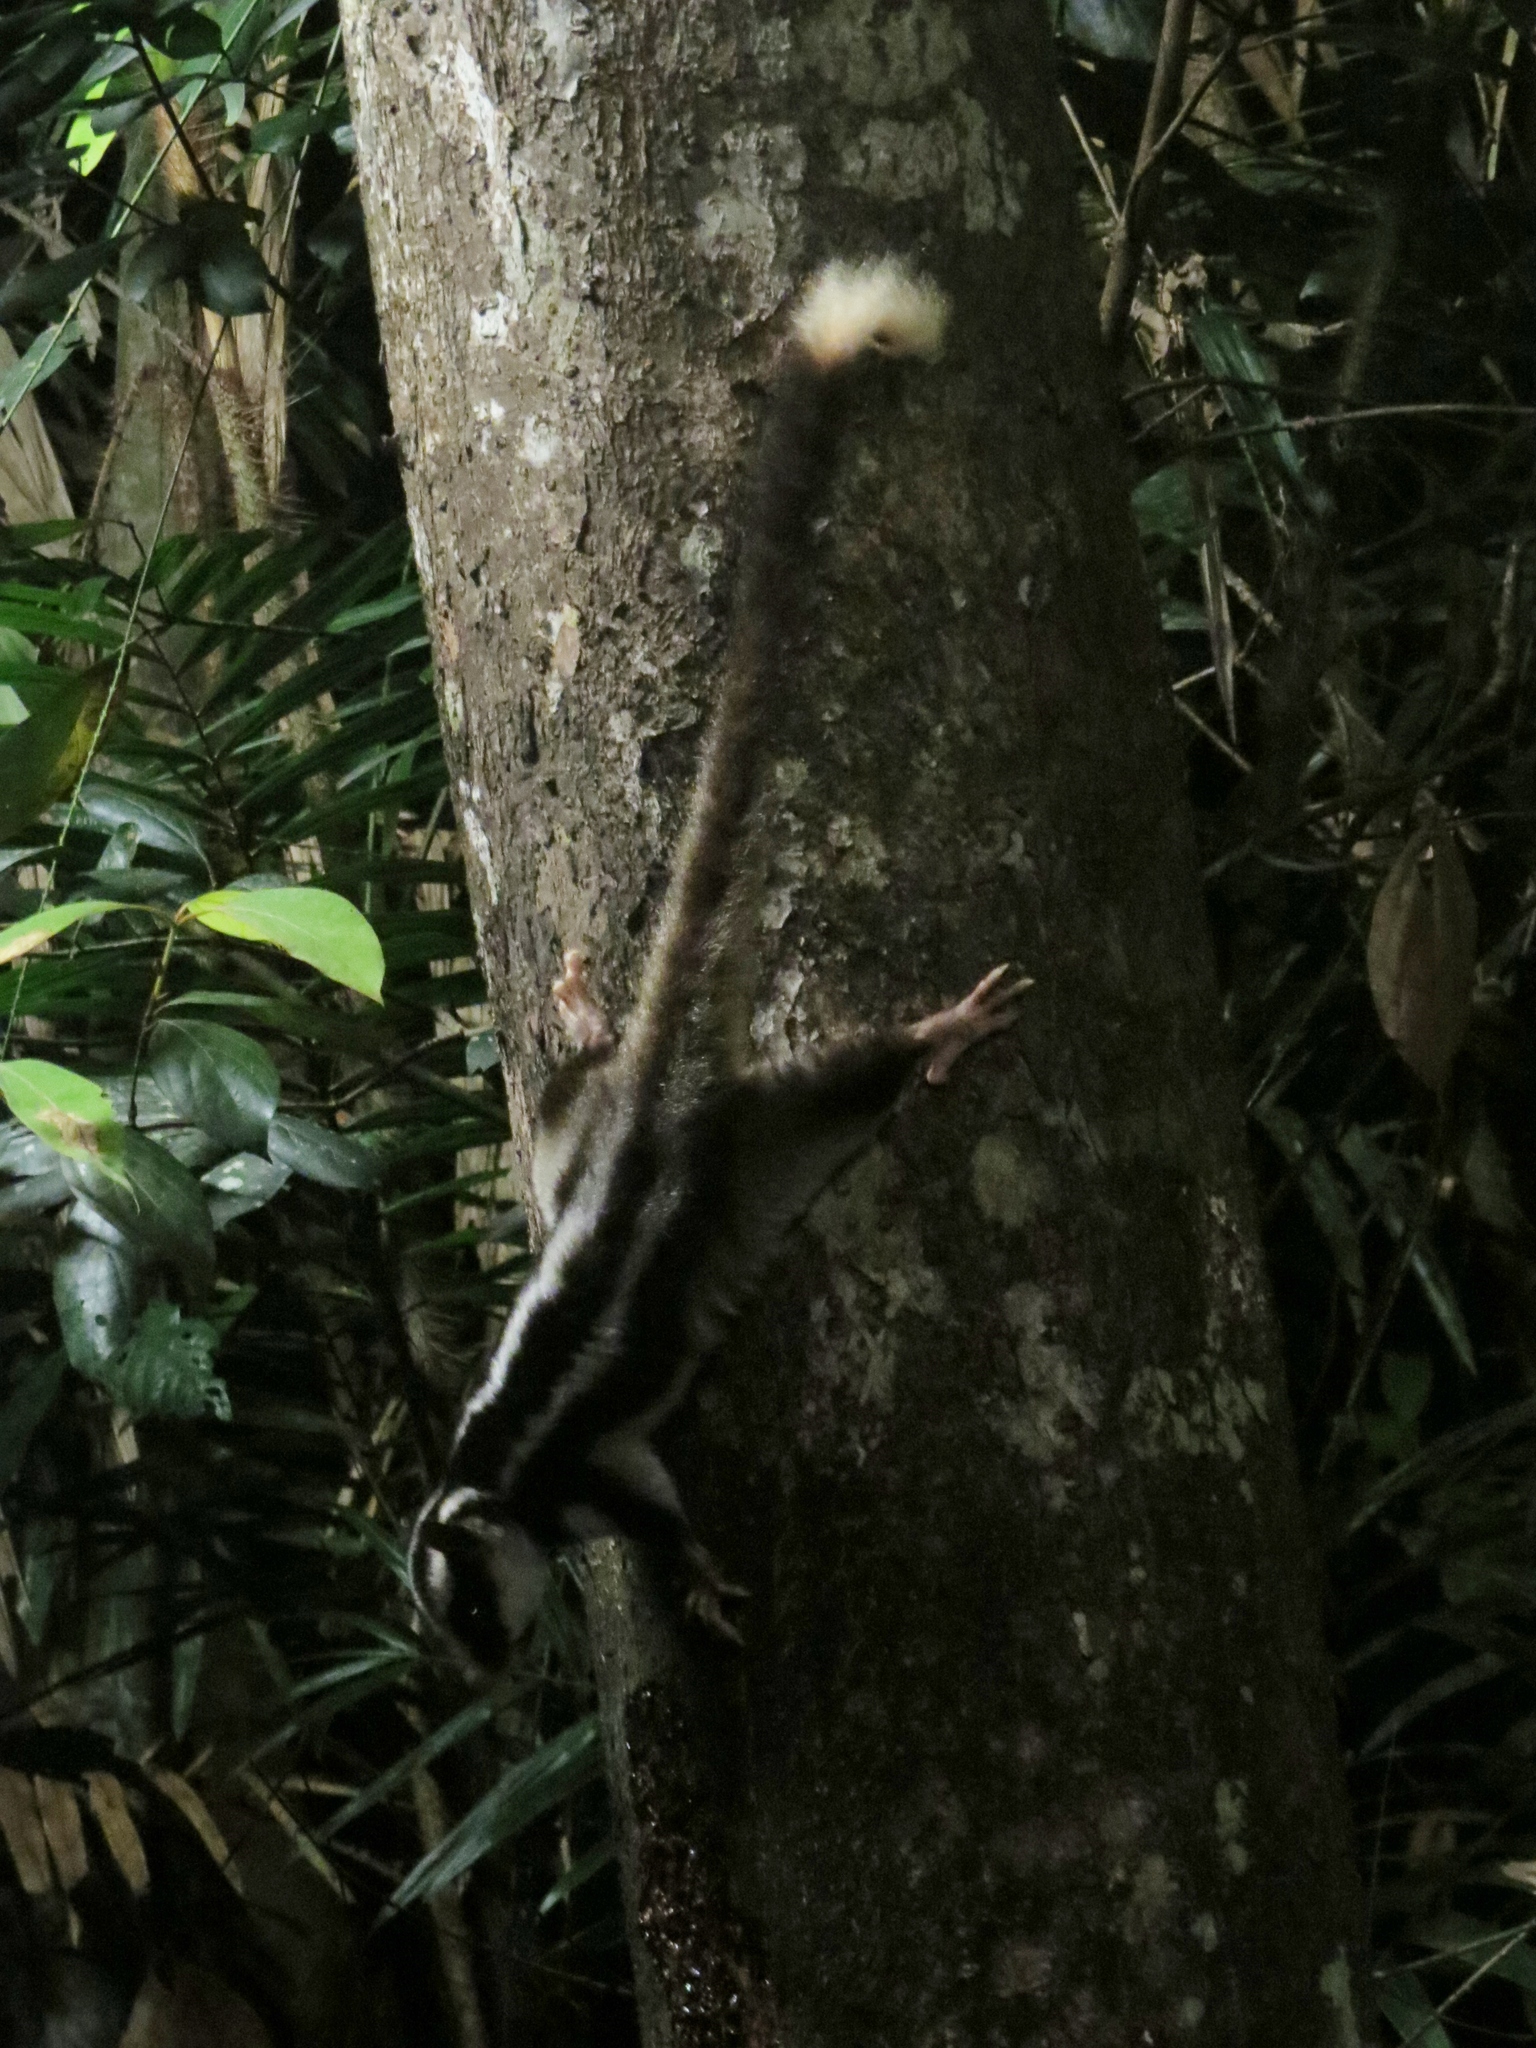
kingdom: Animalia
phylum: Chordata
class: Mammalia
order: Diprotodontia
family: Petauridae
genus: Dactylopsila
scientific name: Dactylopsila trivirgata
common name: Striped possum
